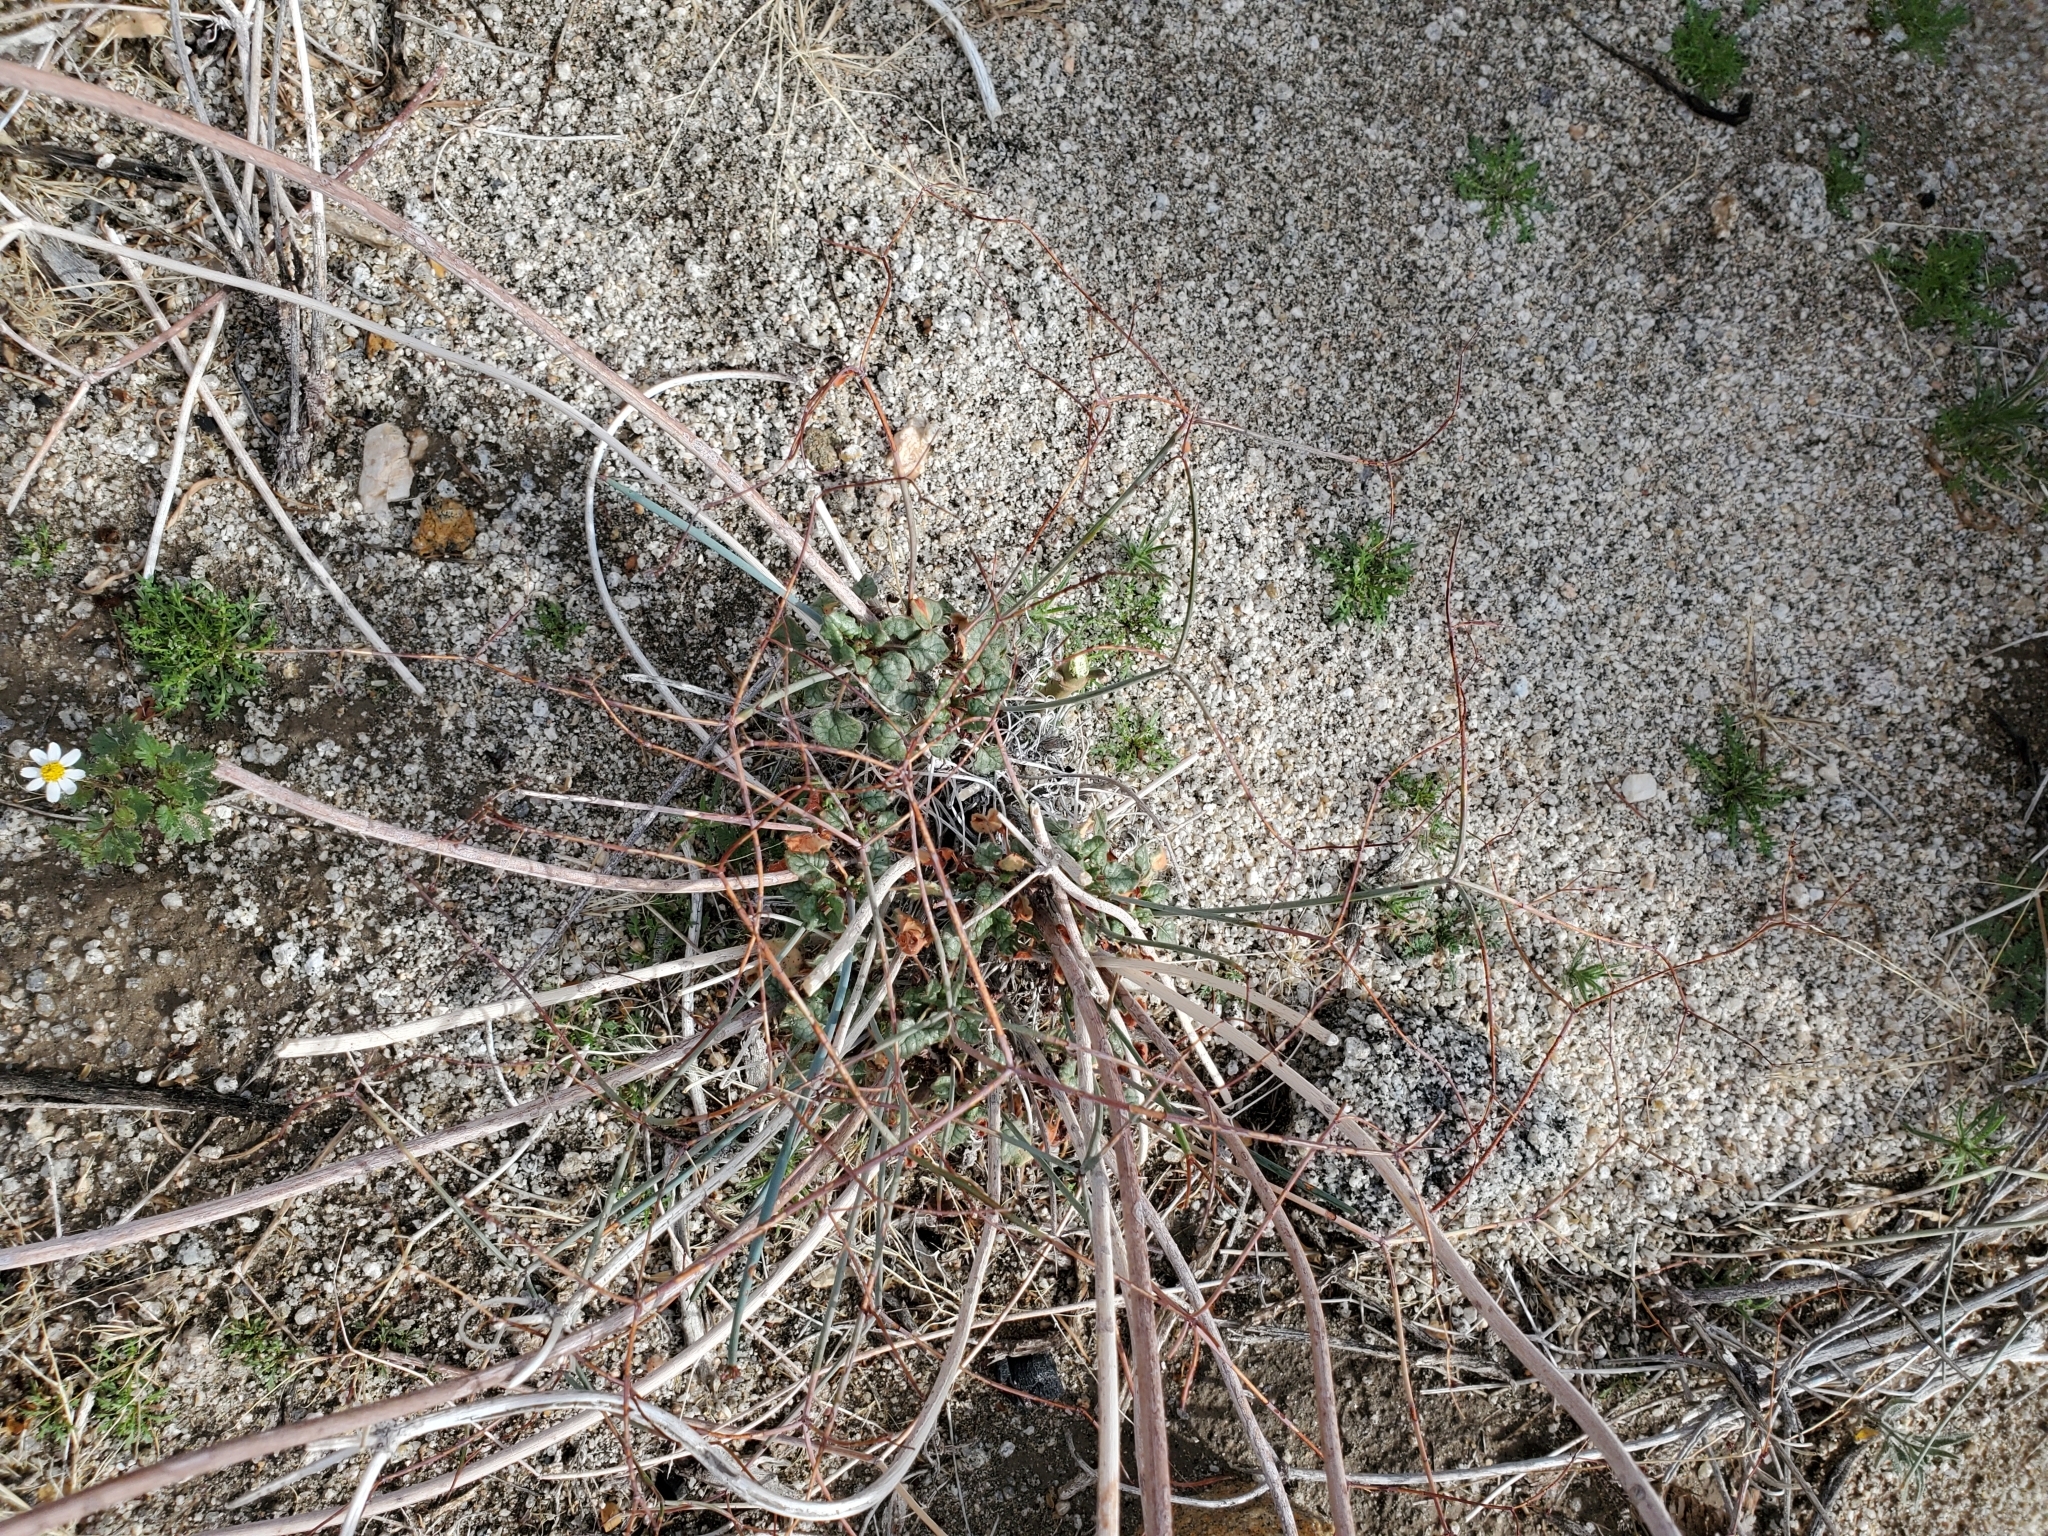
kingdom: Plantae
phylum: Tracheophyta
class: Magnoliopsida
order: Caryophyllales
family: Polygonaceae
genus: Eriogonum
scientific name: Eriogonum inflatum
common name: Desert trumpet
